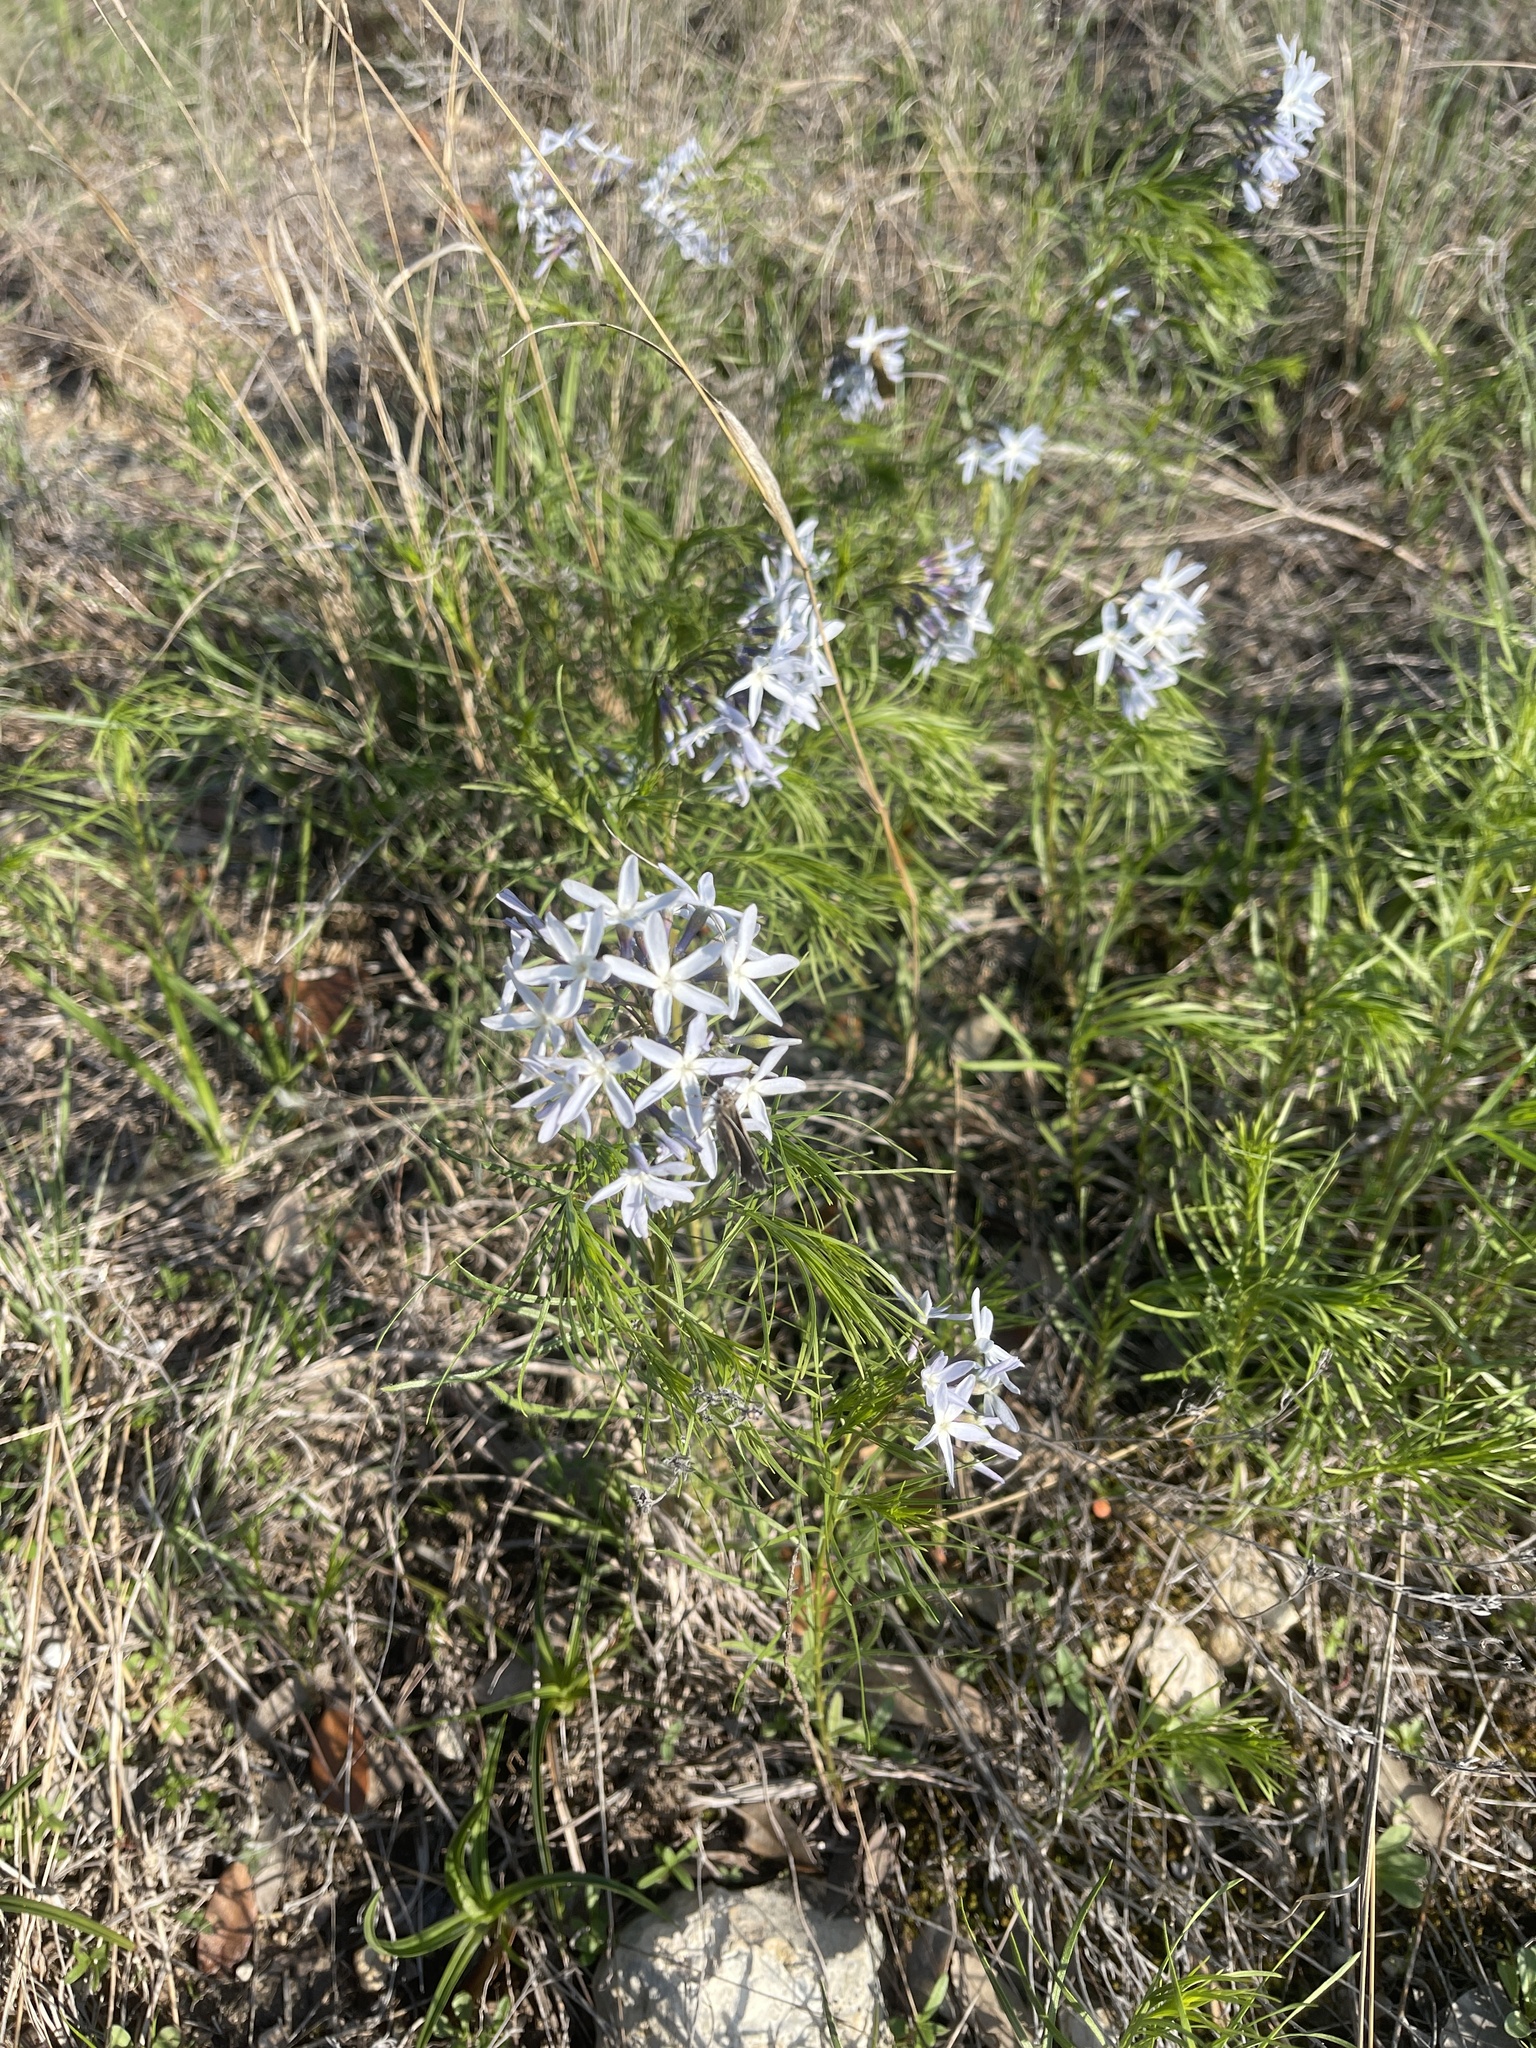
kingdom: Plantae
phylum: Tracheophyta
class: Magnoliopsida
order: Gentianales
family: Apocynaceae
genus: Amsonia
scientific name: Amsonia ciliata
